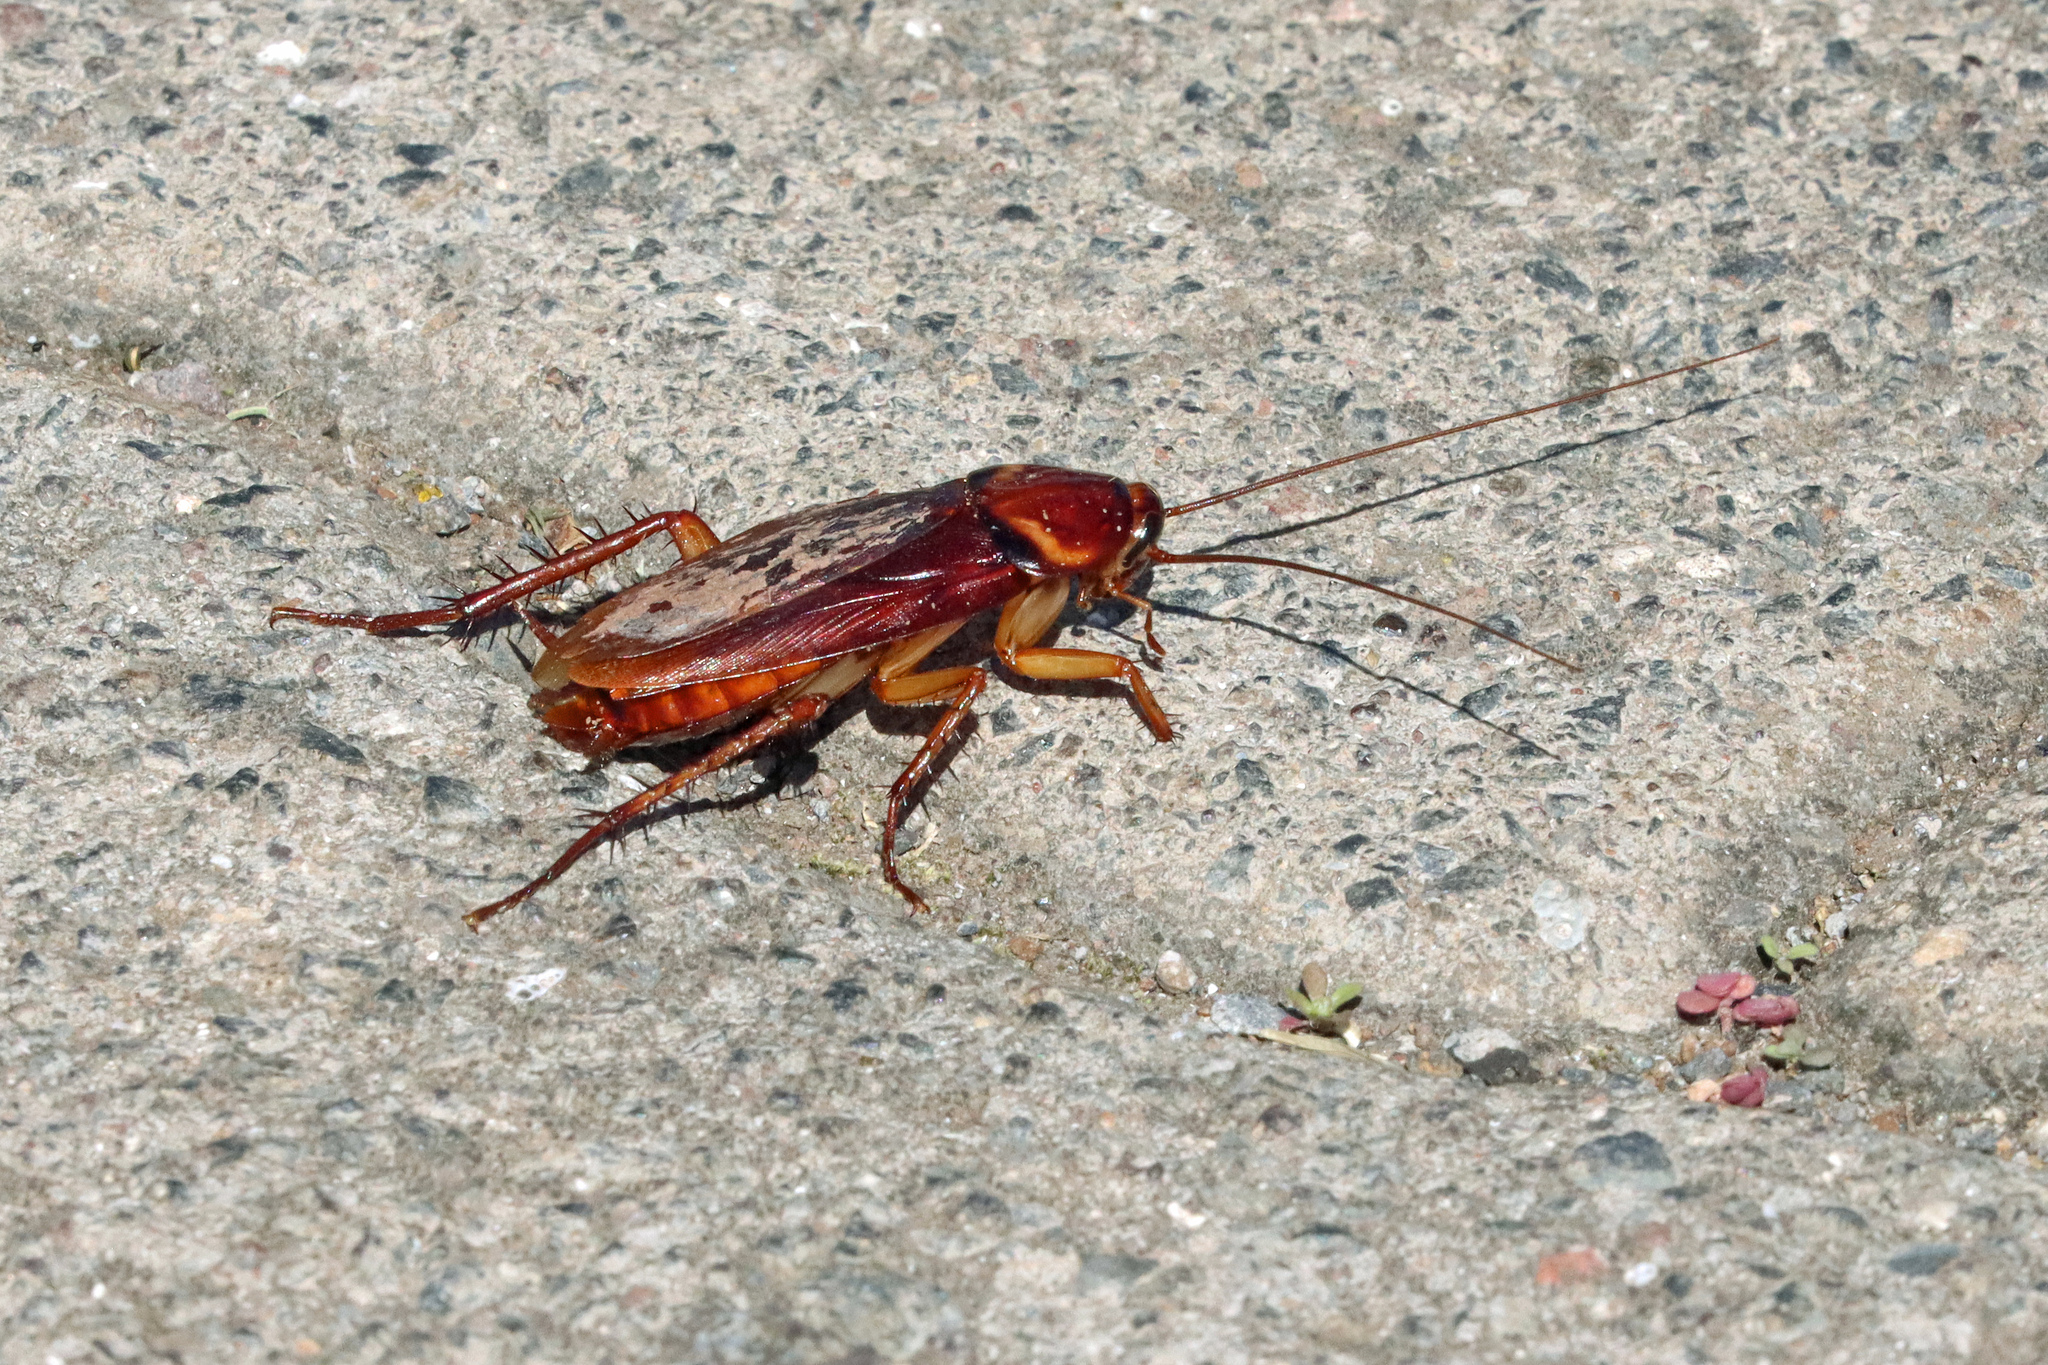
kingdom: Animalia
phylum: Arthropoda
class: Insecta
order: Blattodea
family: Blattidae
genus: Periplaneta
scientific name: Periplaneta americana
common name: American cockroach
